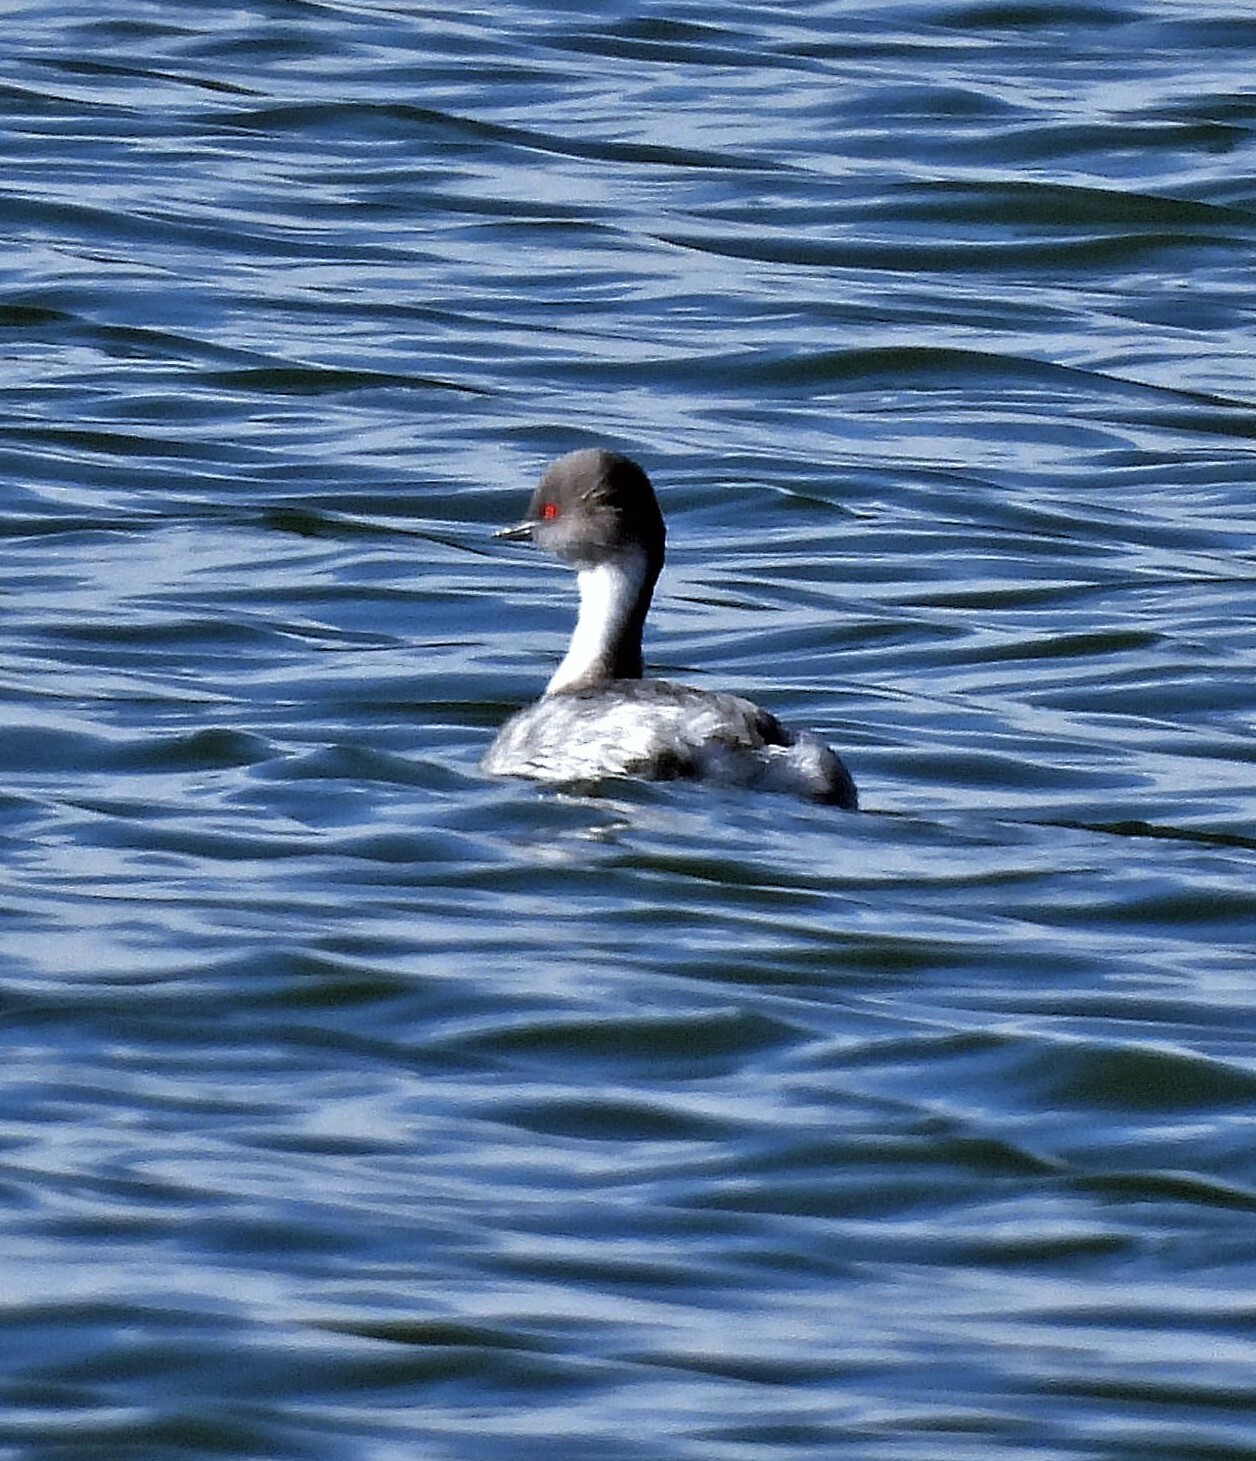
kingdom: Animalia
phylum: Chordata
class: Aves
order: Podicipediformes
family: Podicipedidae
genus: Podiceps
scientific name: Podiceps occipitalis
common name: Silvery grebe
